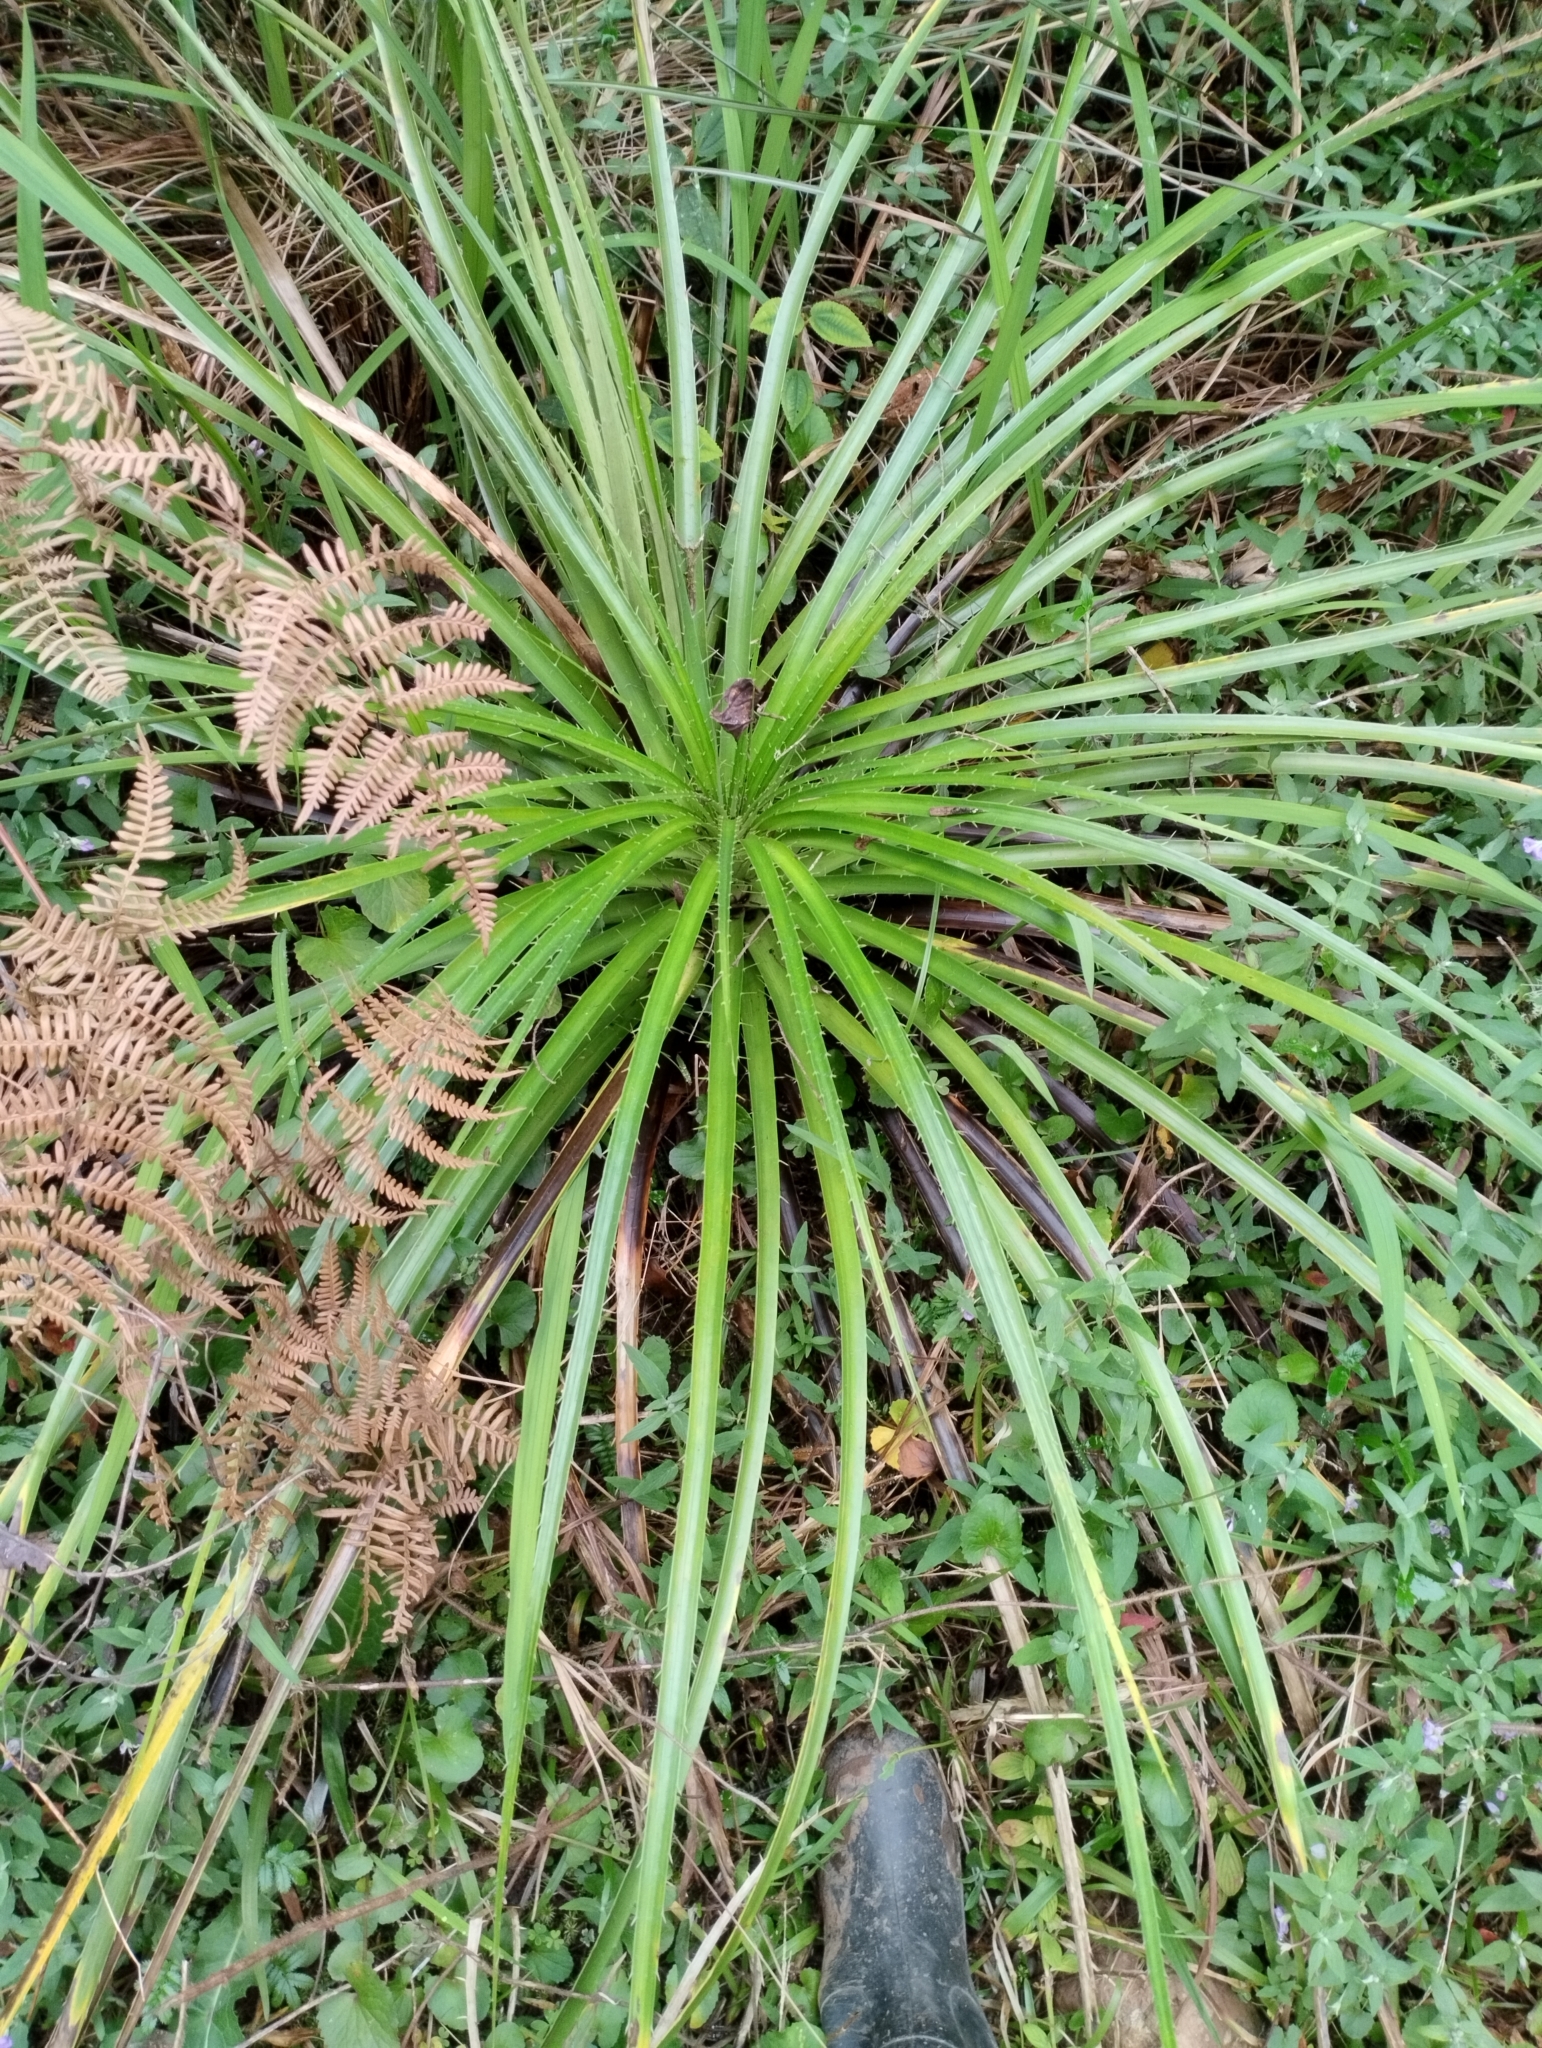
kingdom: Plantae
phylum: Tracheophyta
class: Magnoliopsida
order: Apiales
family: Apiaceae
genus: Eryngium
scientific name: Eryngium horridum
